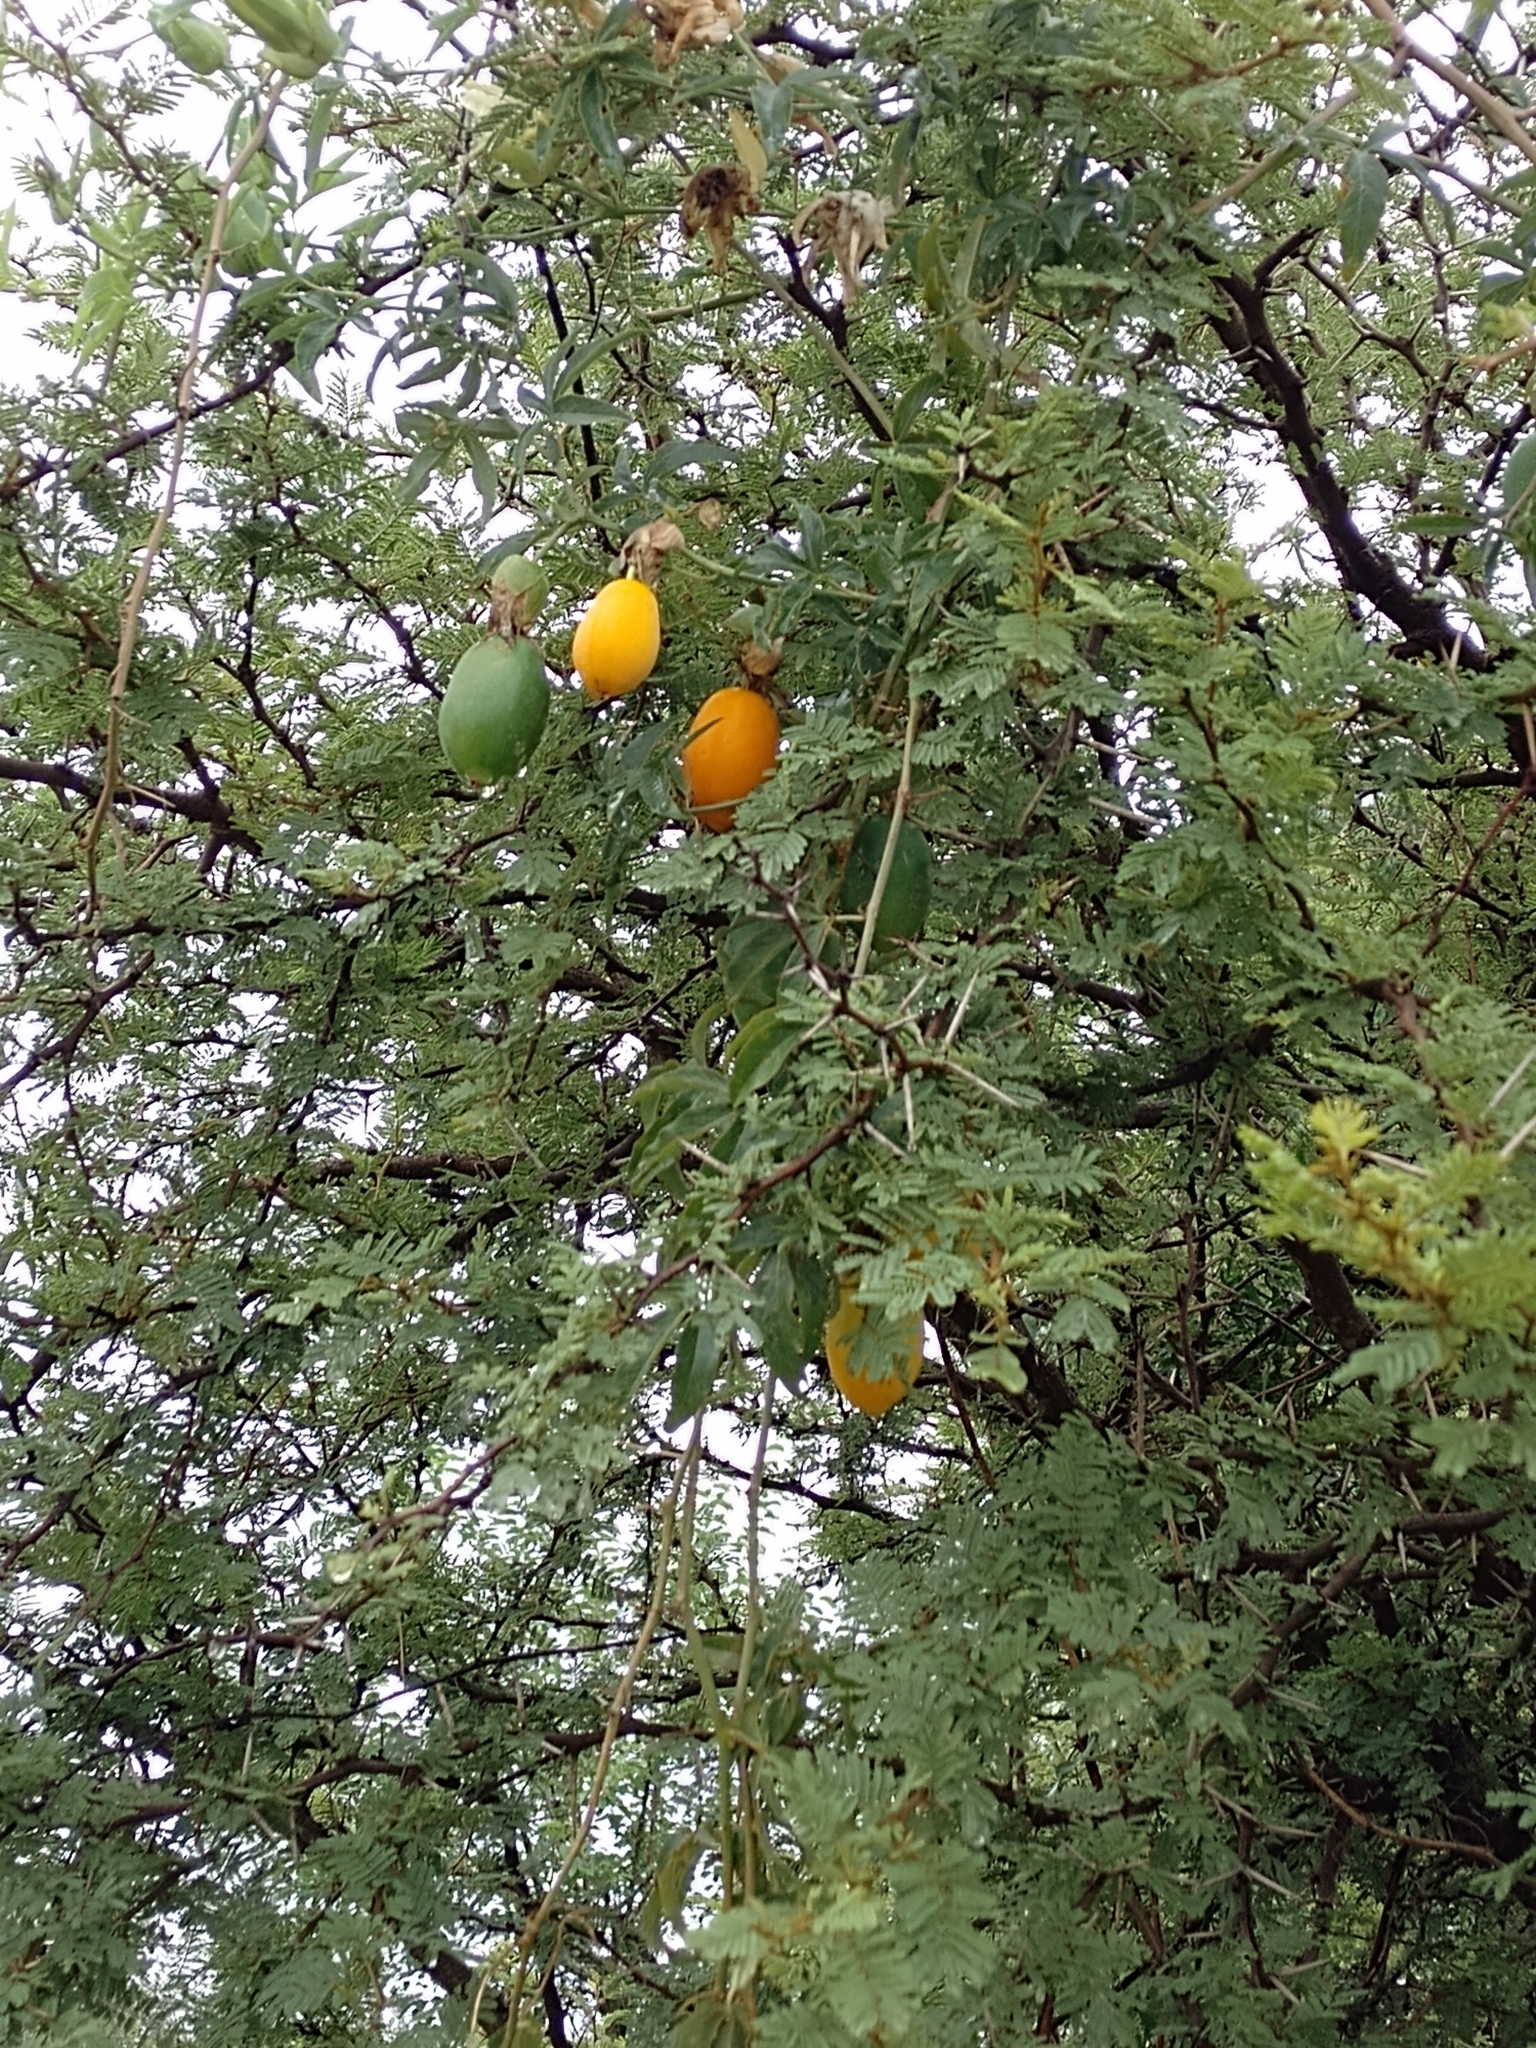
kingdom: Plantae
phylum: Tracheophyta
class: Magnoliopsida
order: Malpighiales
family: Passifloraceae
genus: Passiflora
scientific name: Passiflora caerulea
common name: Blue passionflower
